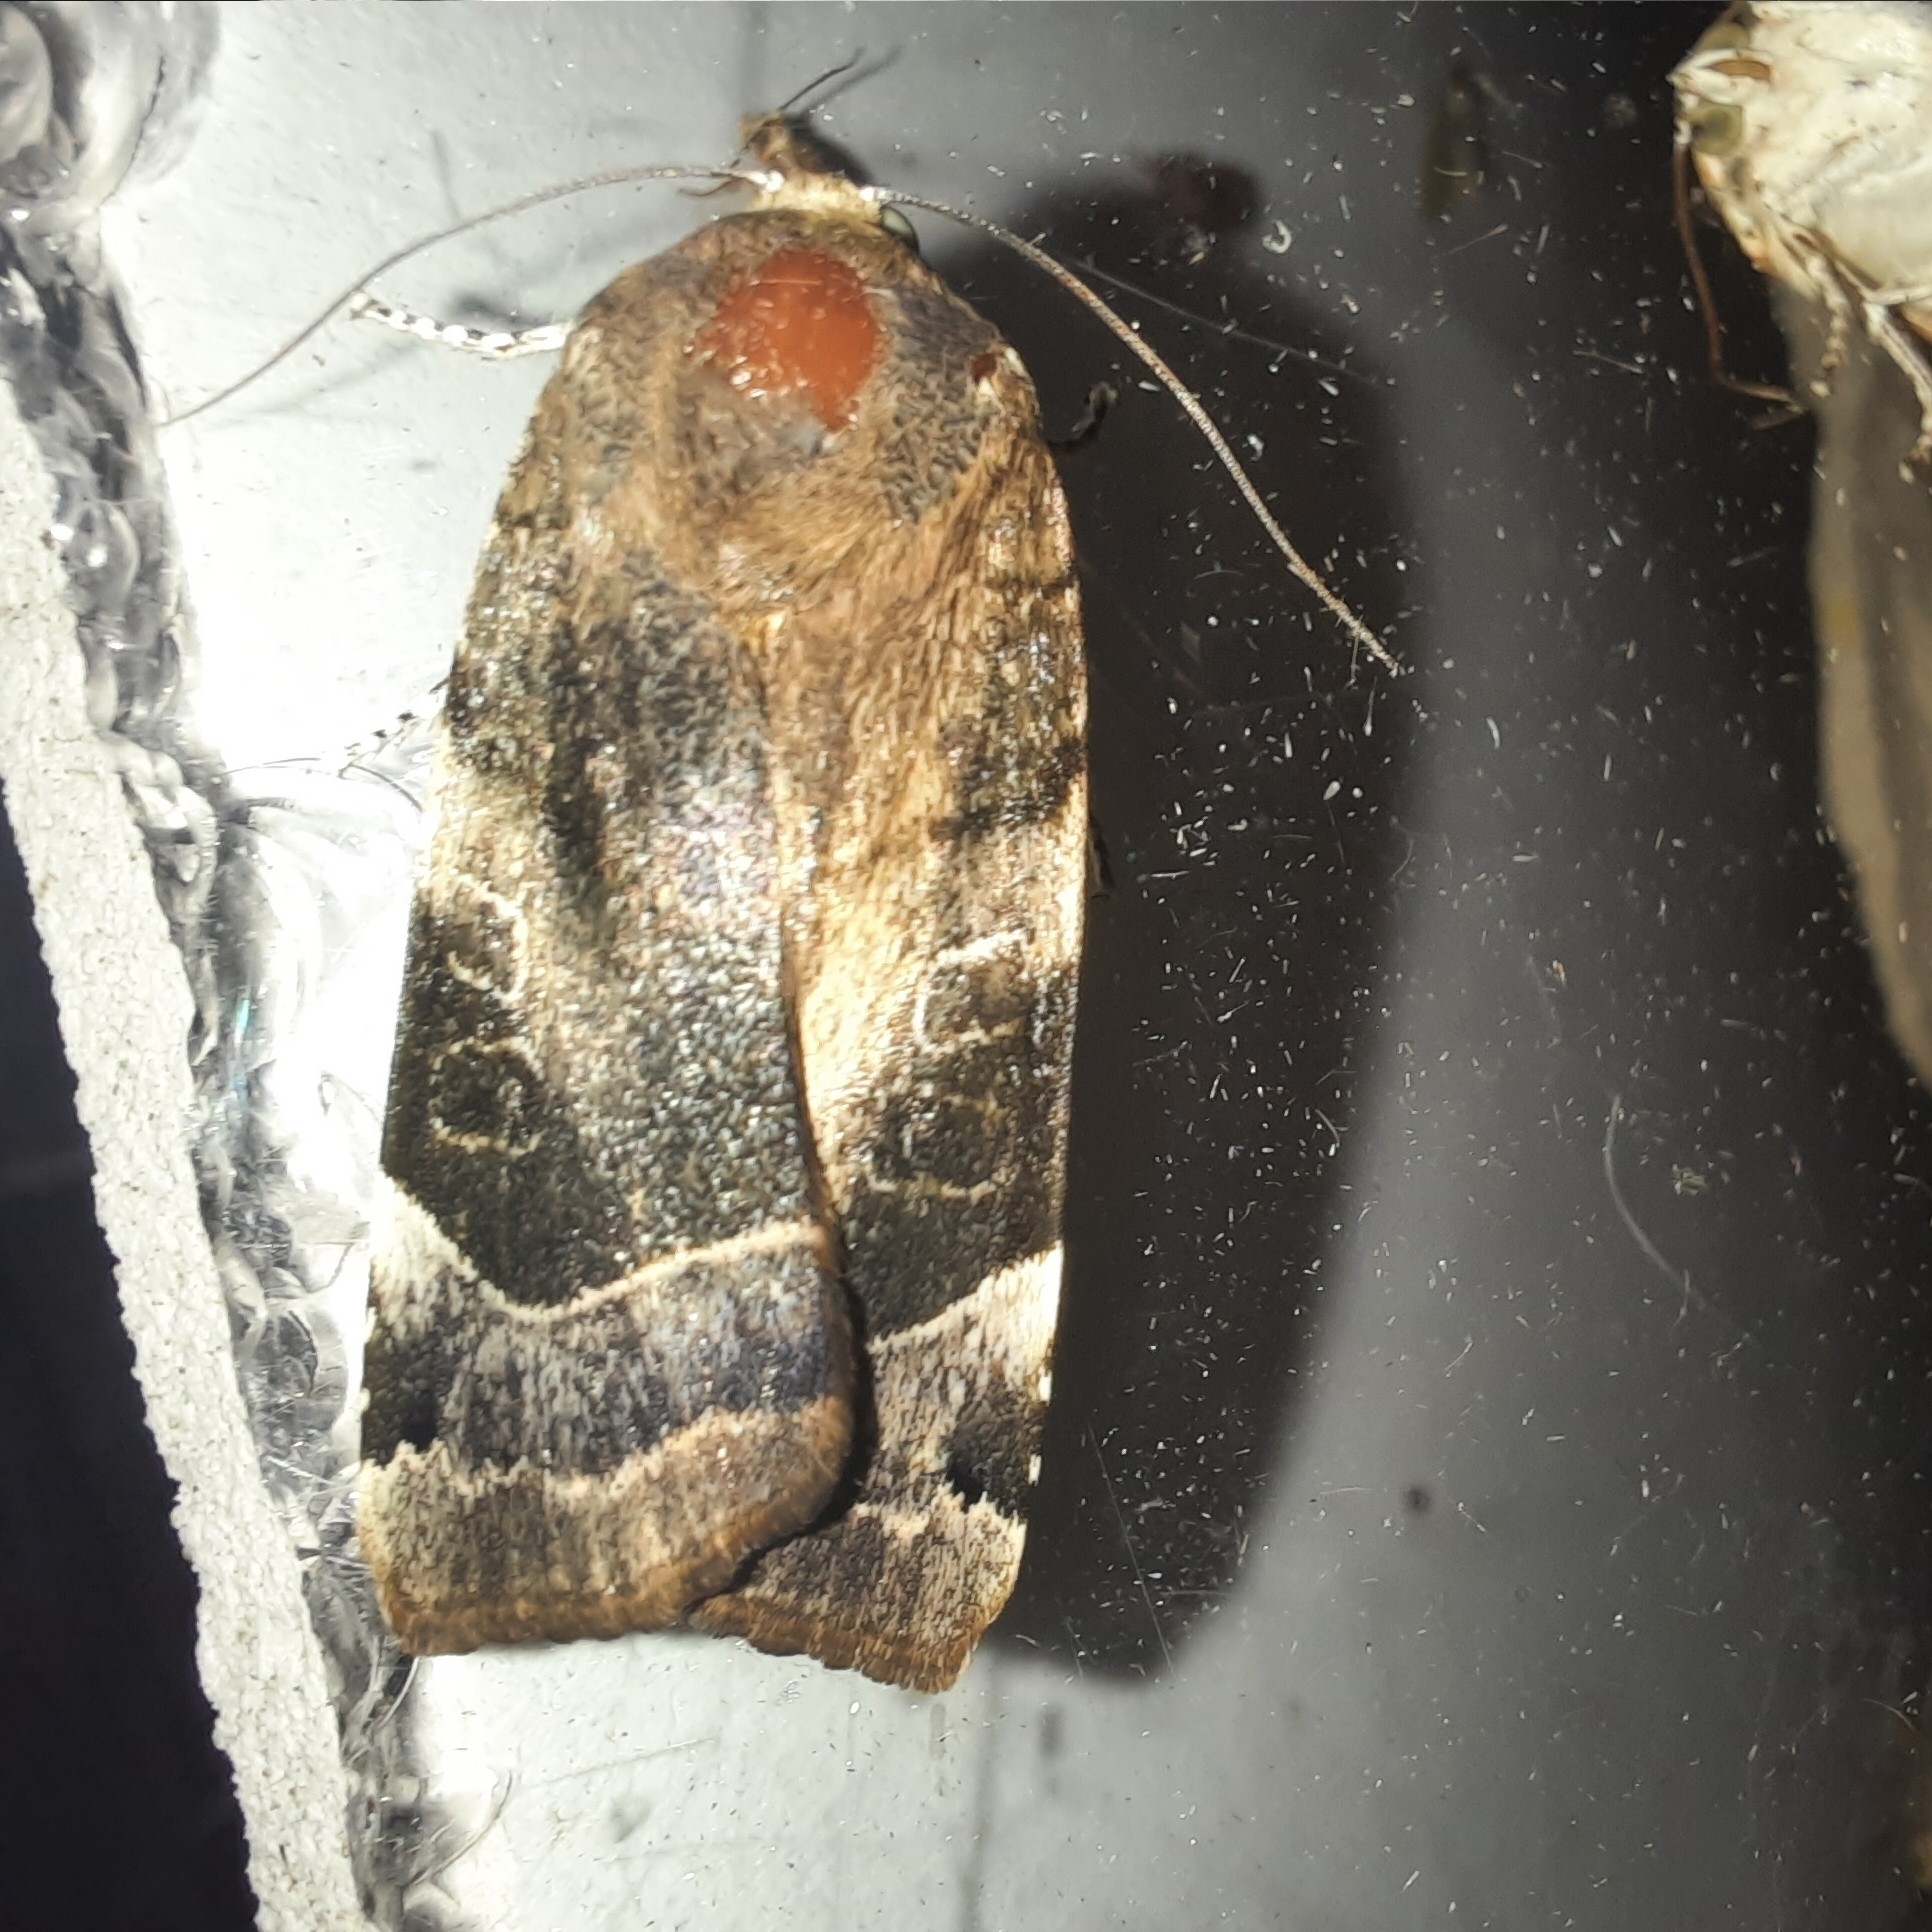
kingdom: Animalia
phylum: Arthropoda
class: Insecta
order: Lepidoptera
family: Noctuidae
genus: Noctua
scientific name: Noctua fimbriata
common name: Broad-bordered yellow underwing
